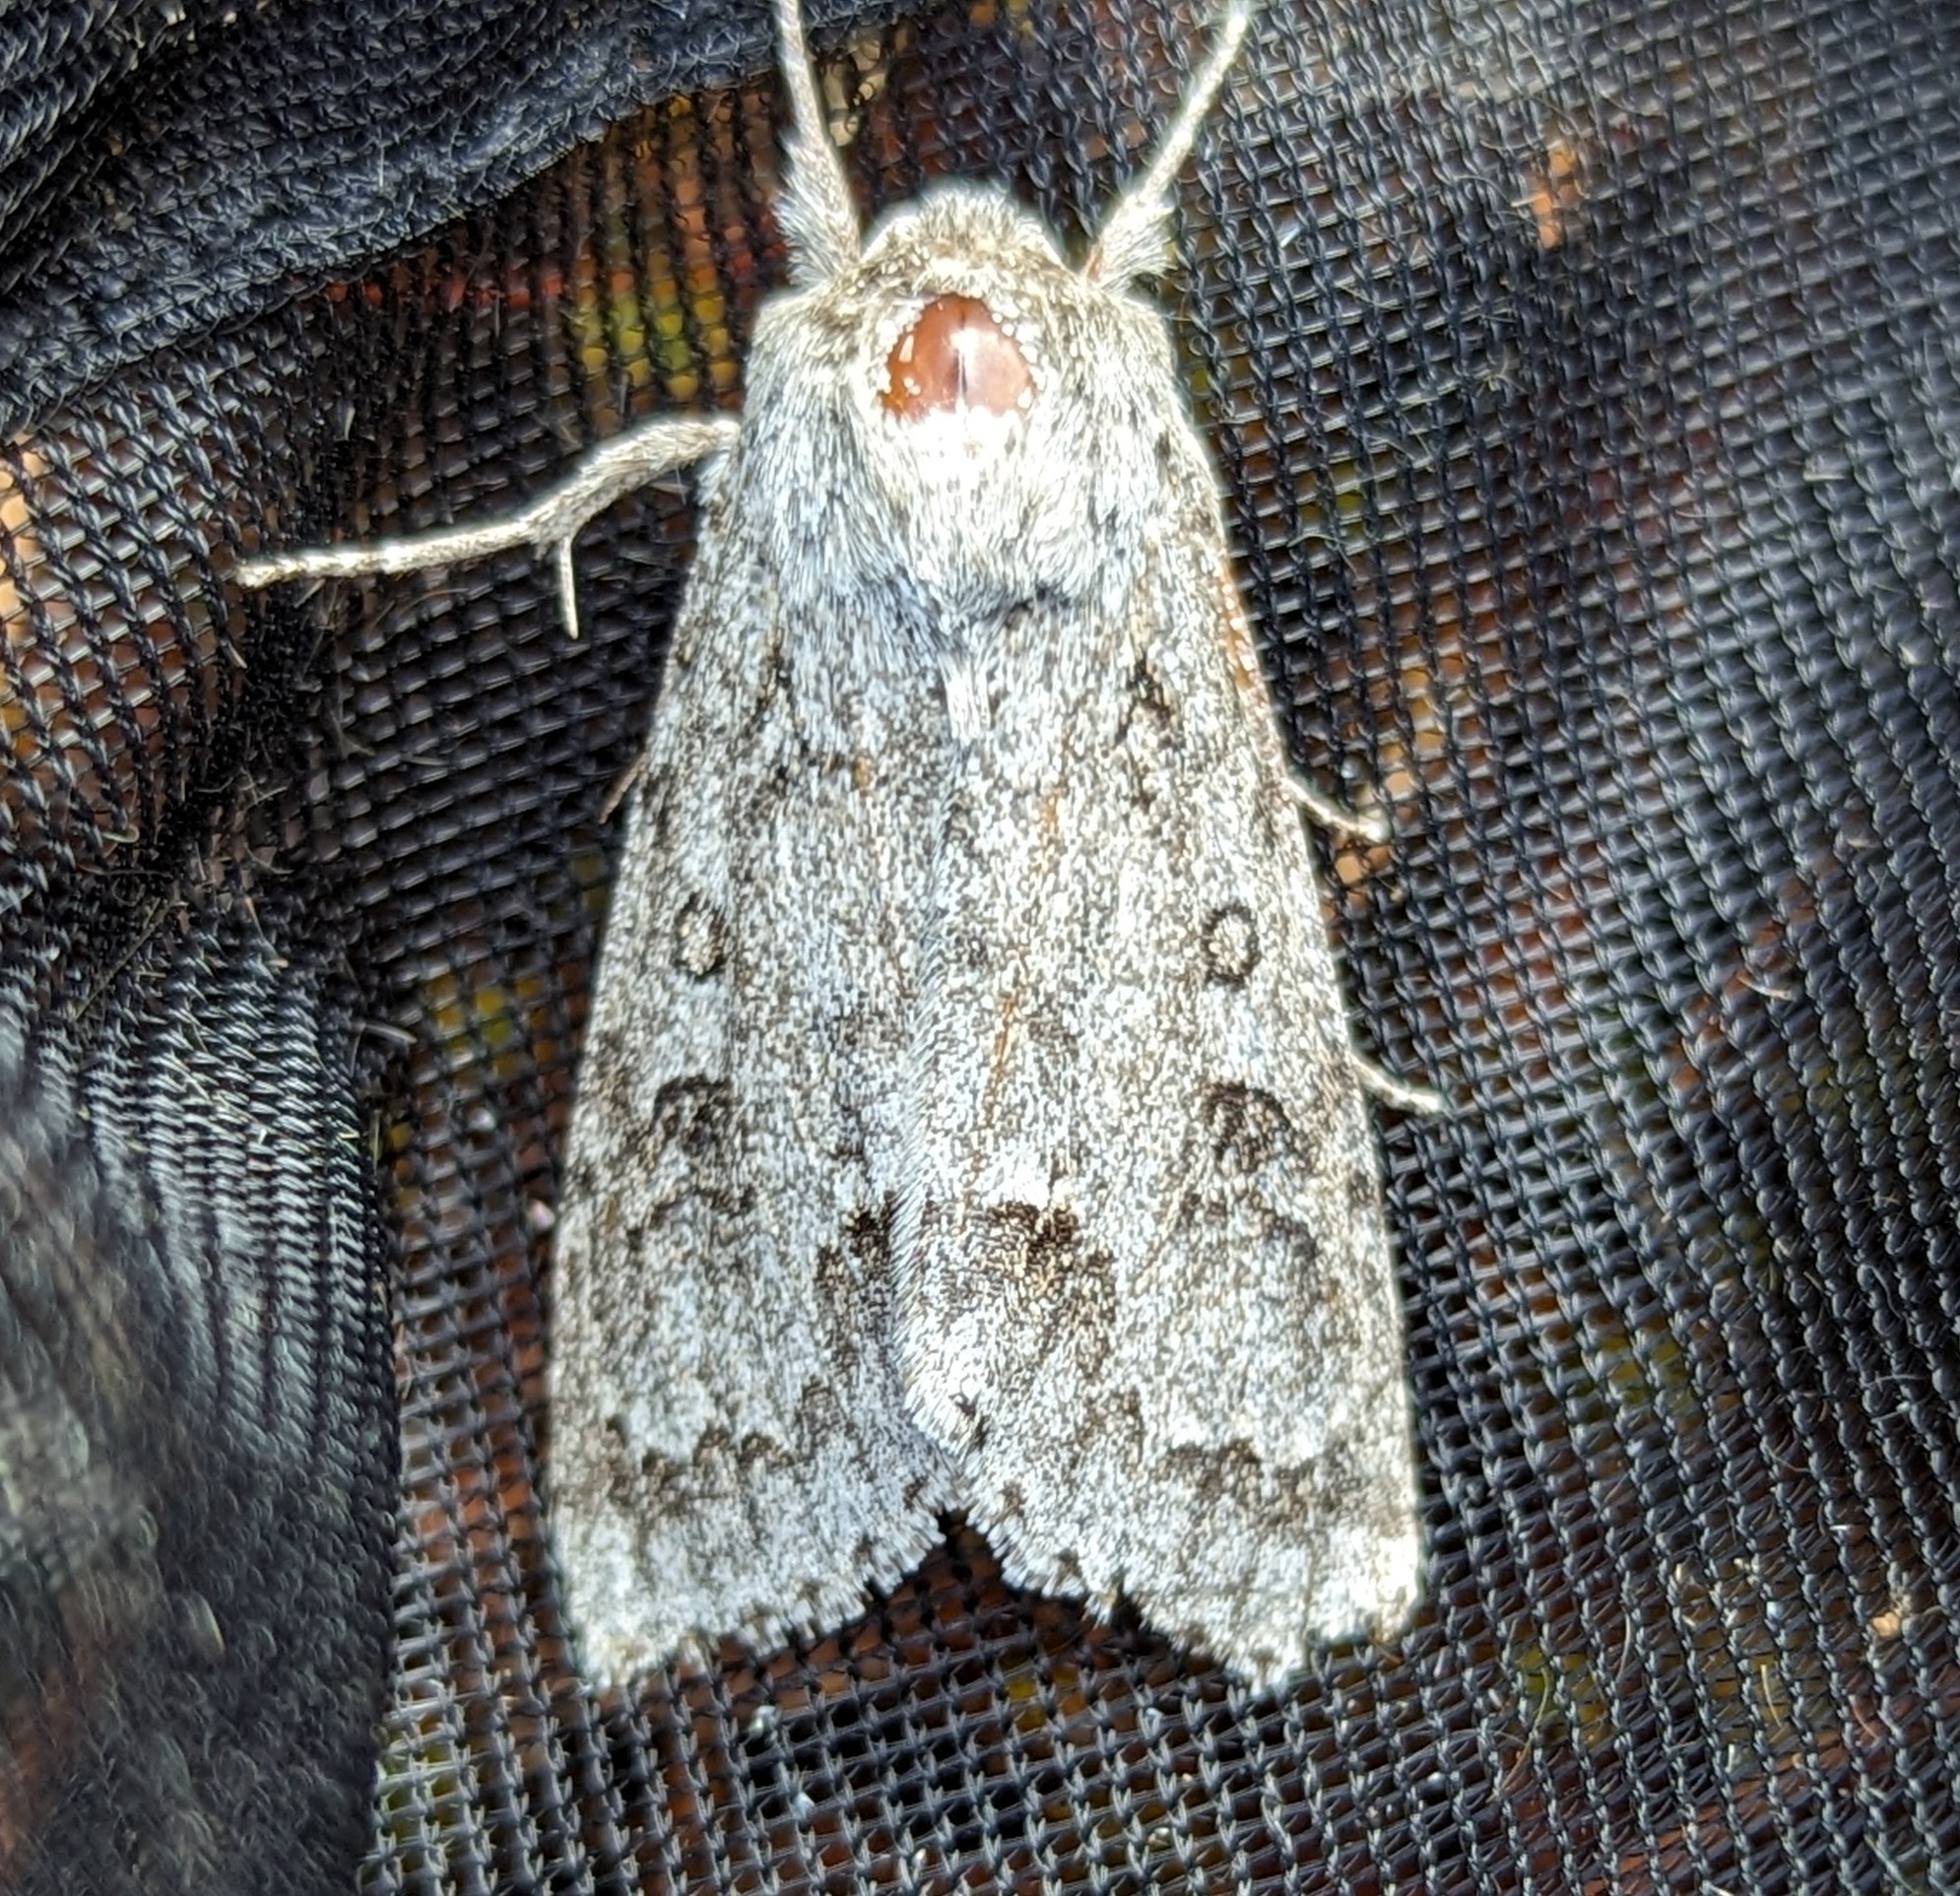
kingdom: Animalia
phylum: Arthropoda
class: Insecta
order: Lepidoptera
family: Noctuidae
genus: Acronicta
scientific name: Acronicta insita
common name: Large gray dagger
